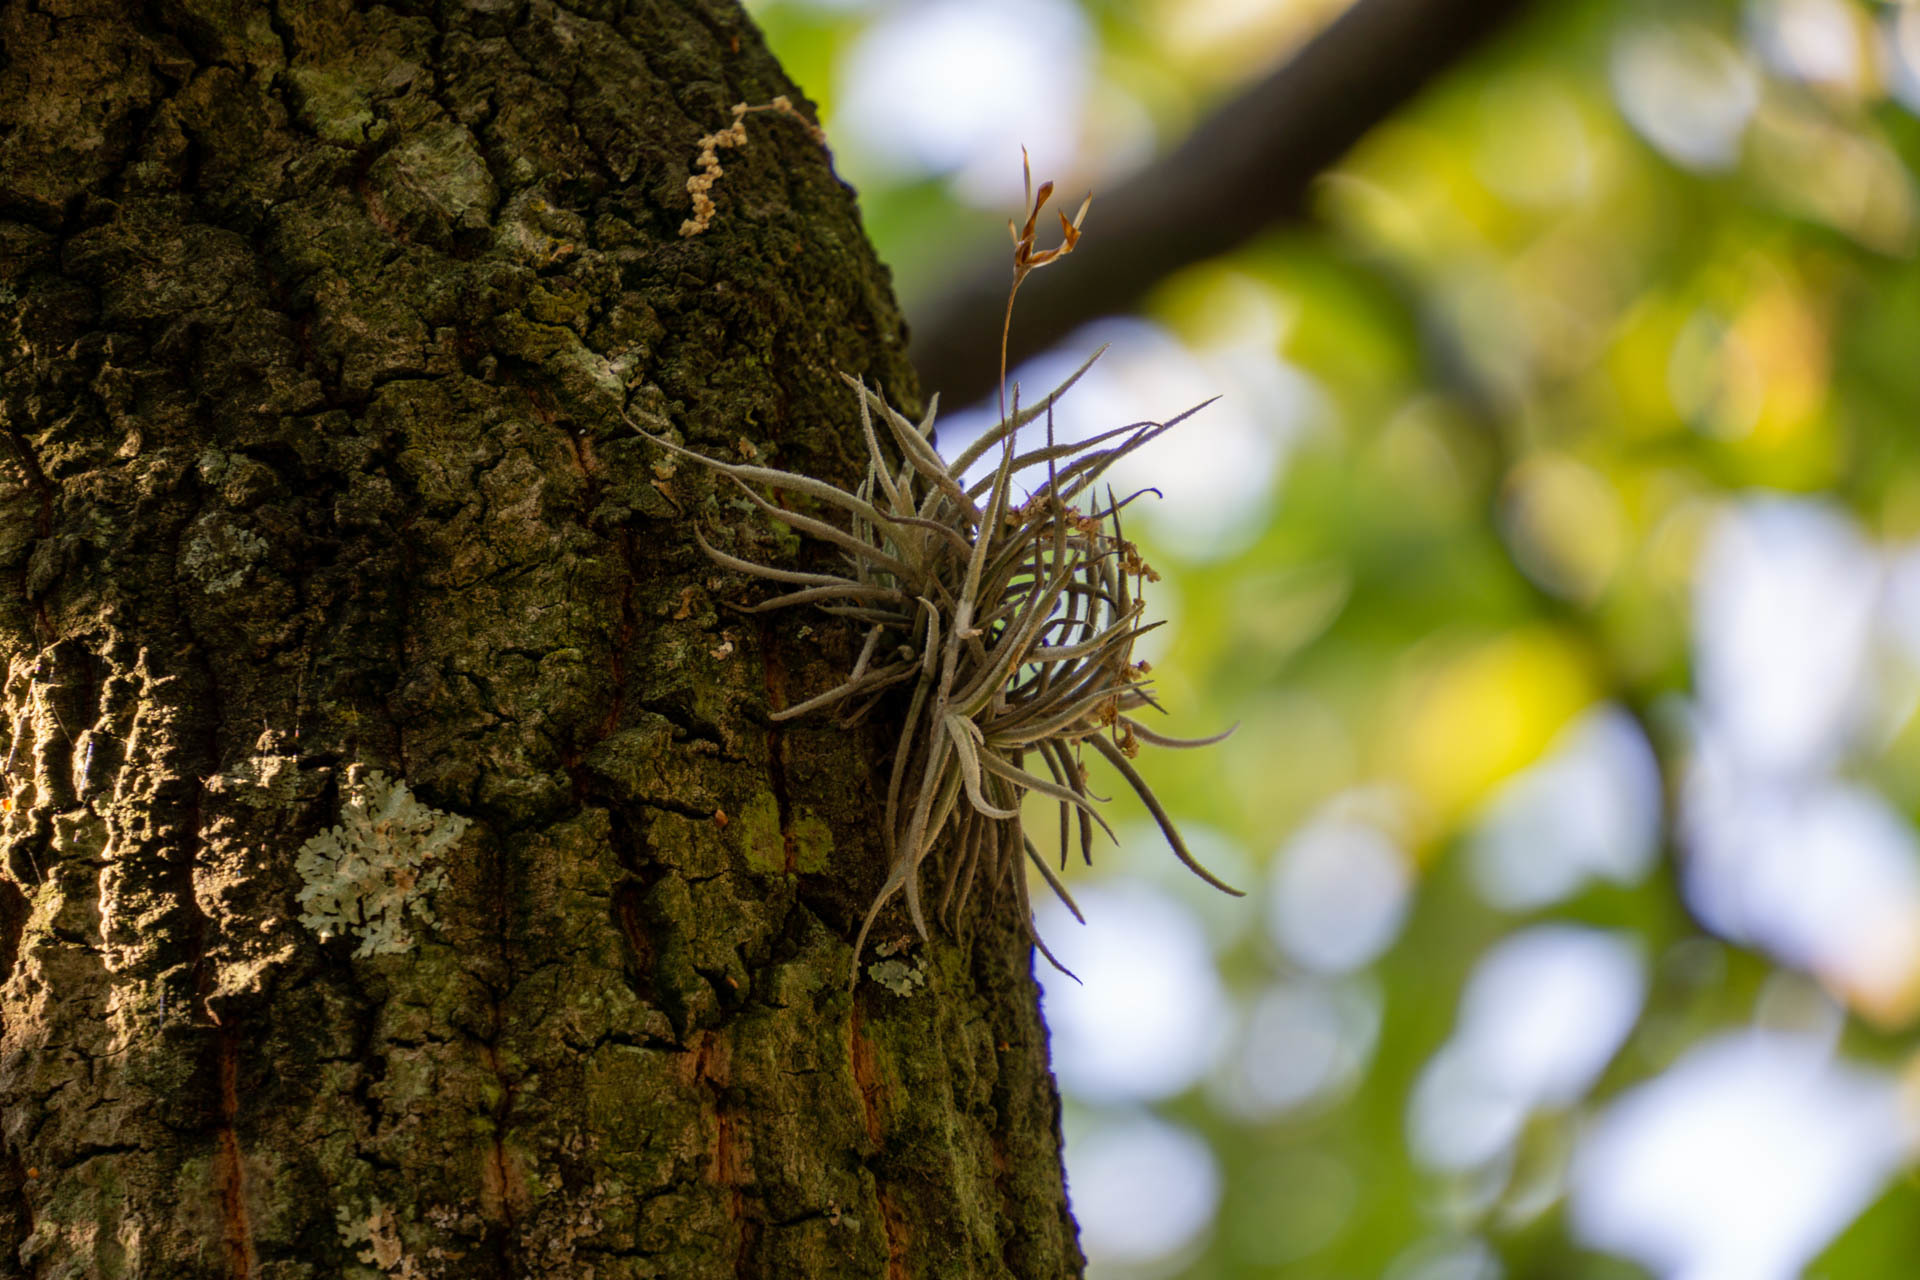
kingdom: Plantae
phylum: Tracheophyta
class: Liliopsida
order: Poales
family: Bromeliaceae
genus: Tillandsia
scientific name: Tillandsia recurvata
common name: Small ballmoss
